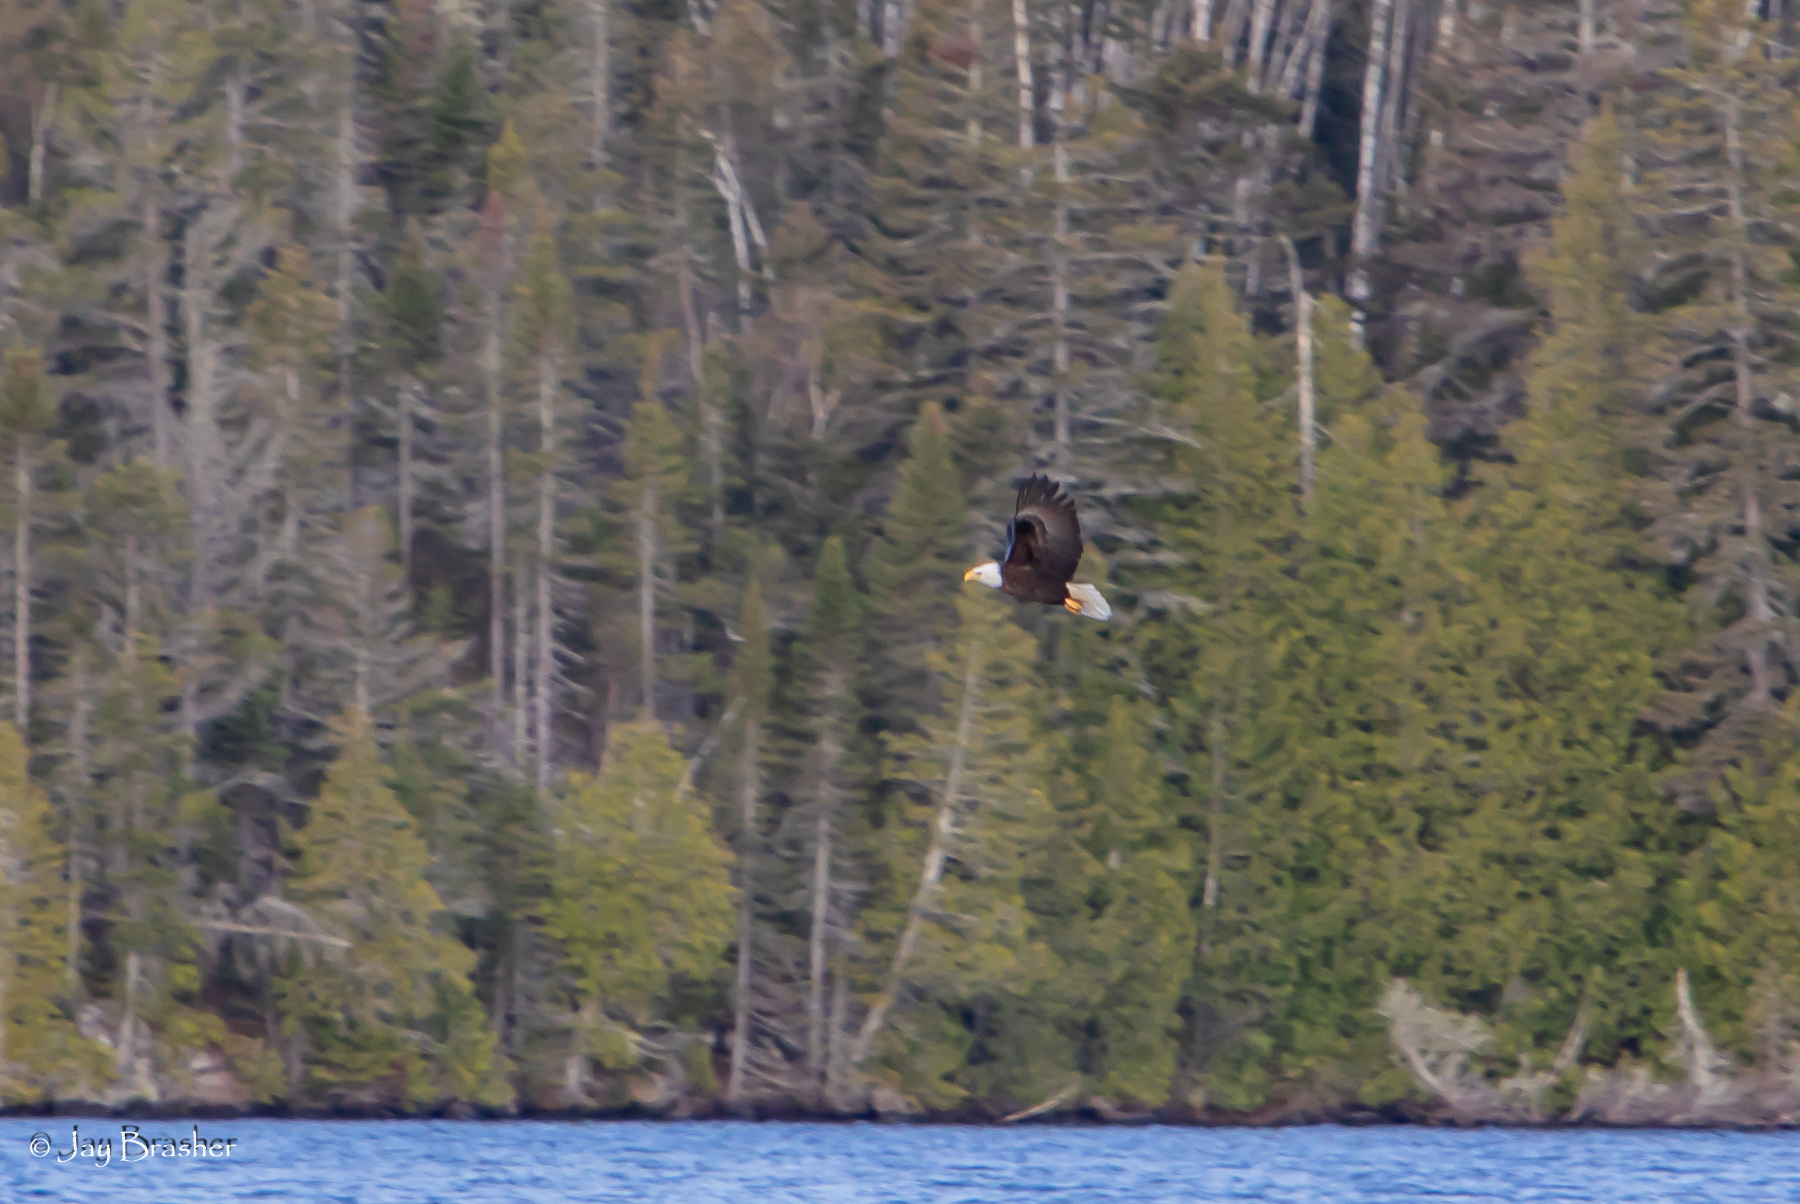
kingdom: Animalia
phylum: Chordata
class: Aves
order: Accipitriformes
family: Accipitridae
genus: Haliaeetus
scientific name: Haliaeetus leucocephalus
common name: Bald eagle
